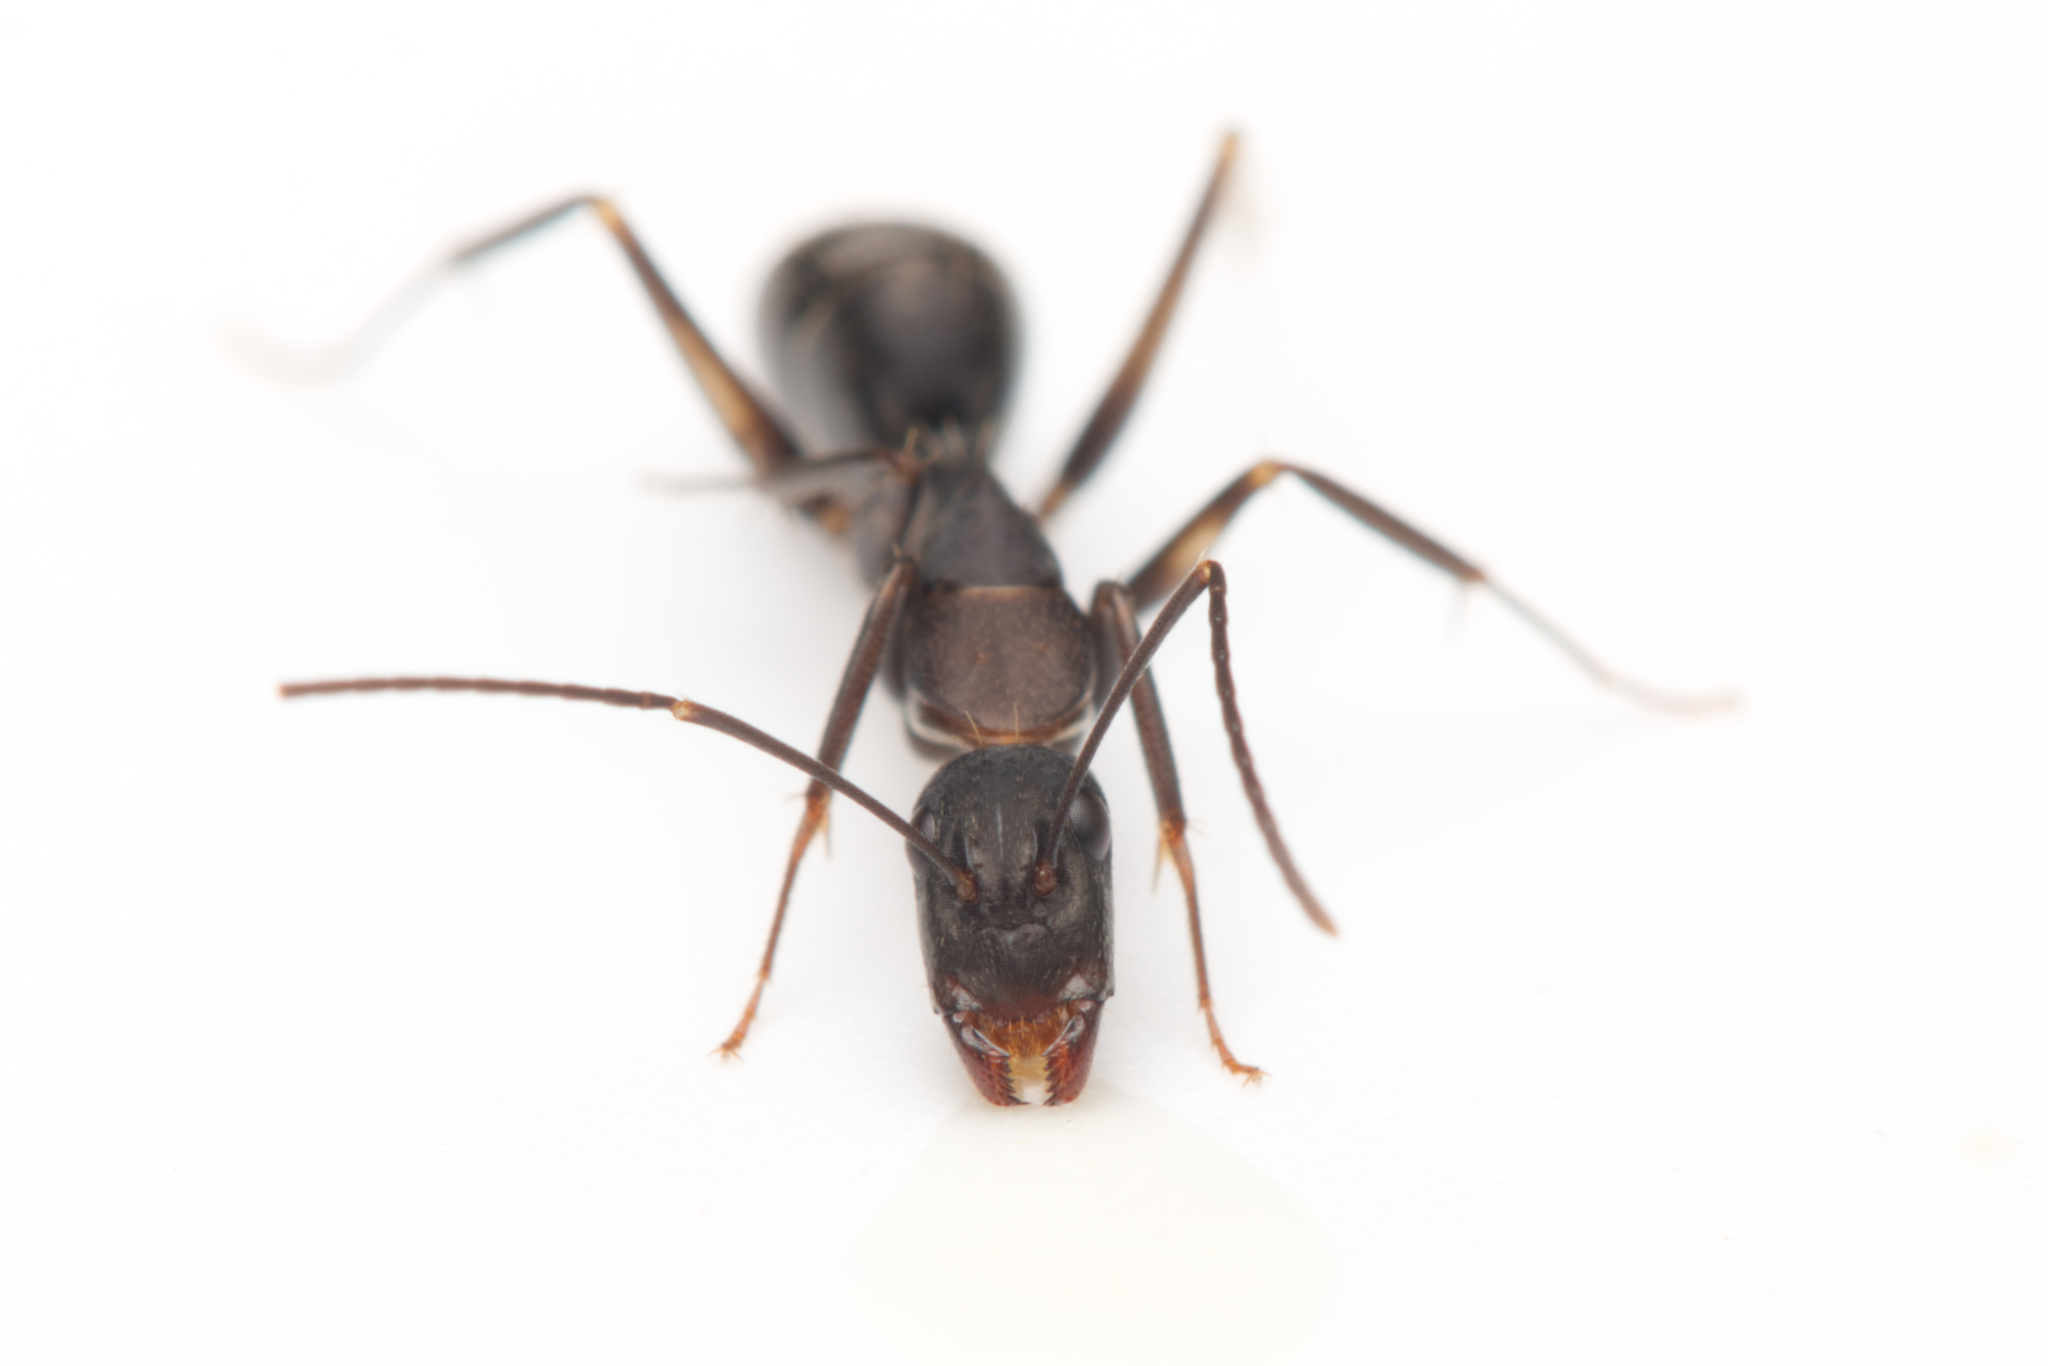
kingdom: Animalia
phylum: Arthropoda
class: Insecta
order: Hymenoptera
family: Formicidae
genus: Camponotus
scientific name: Camponotus lividicoxis
